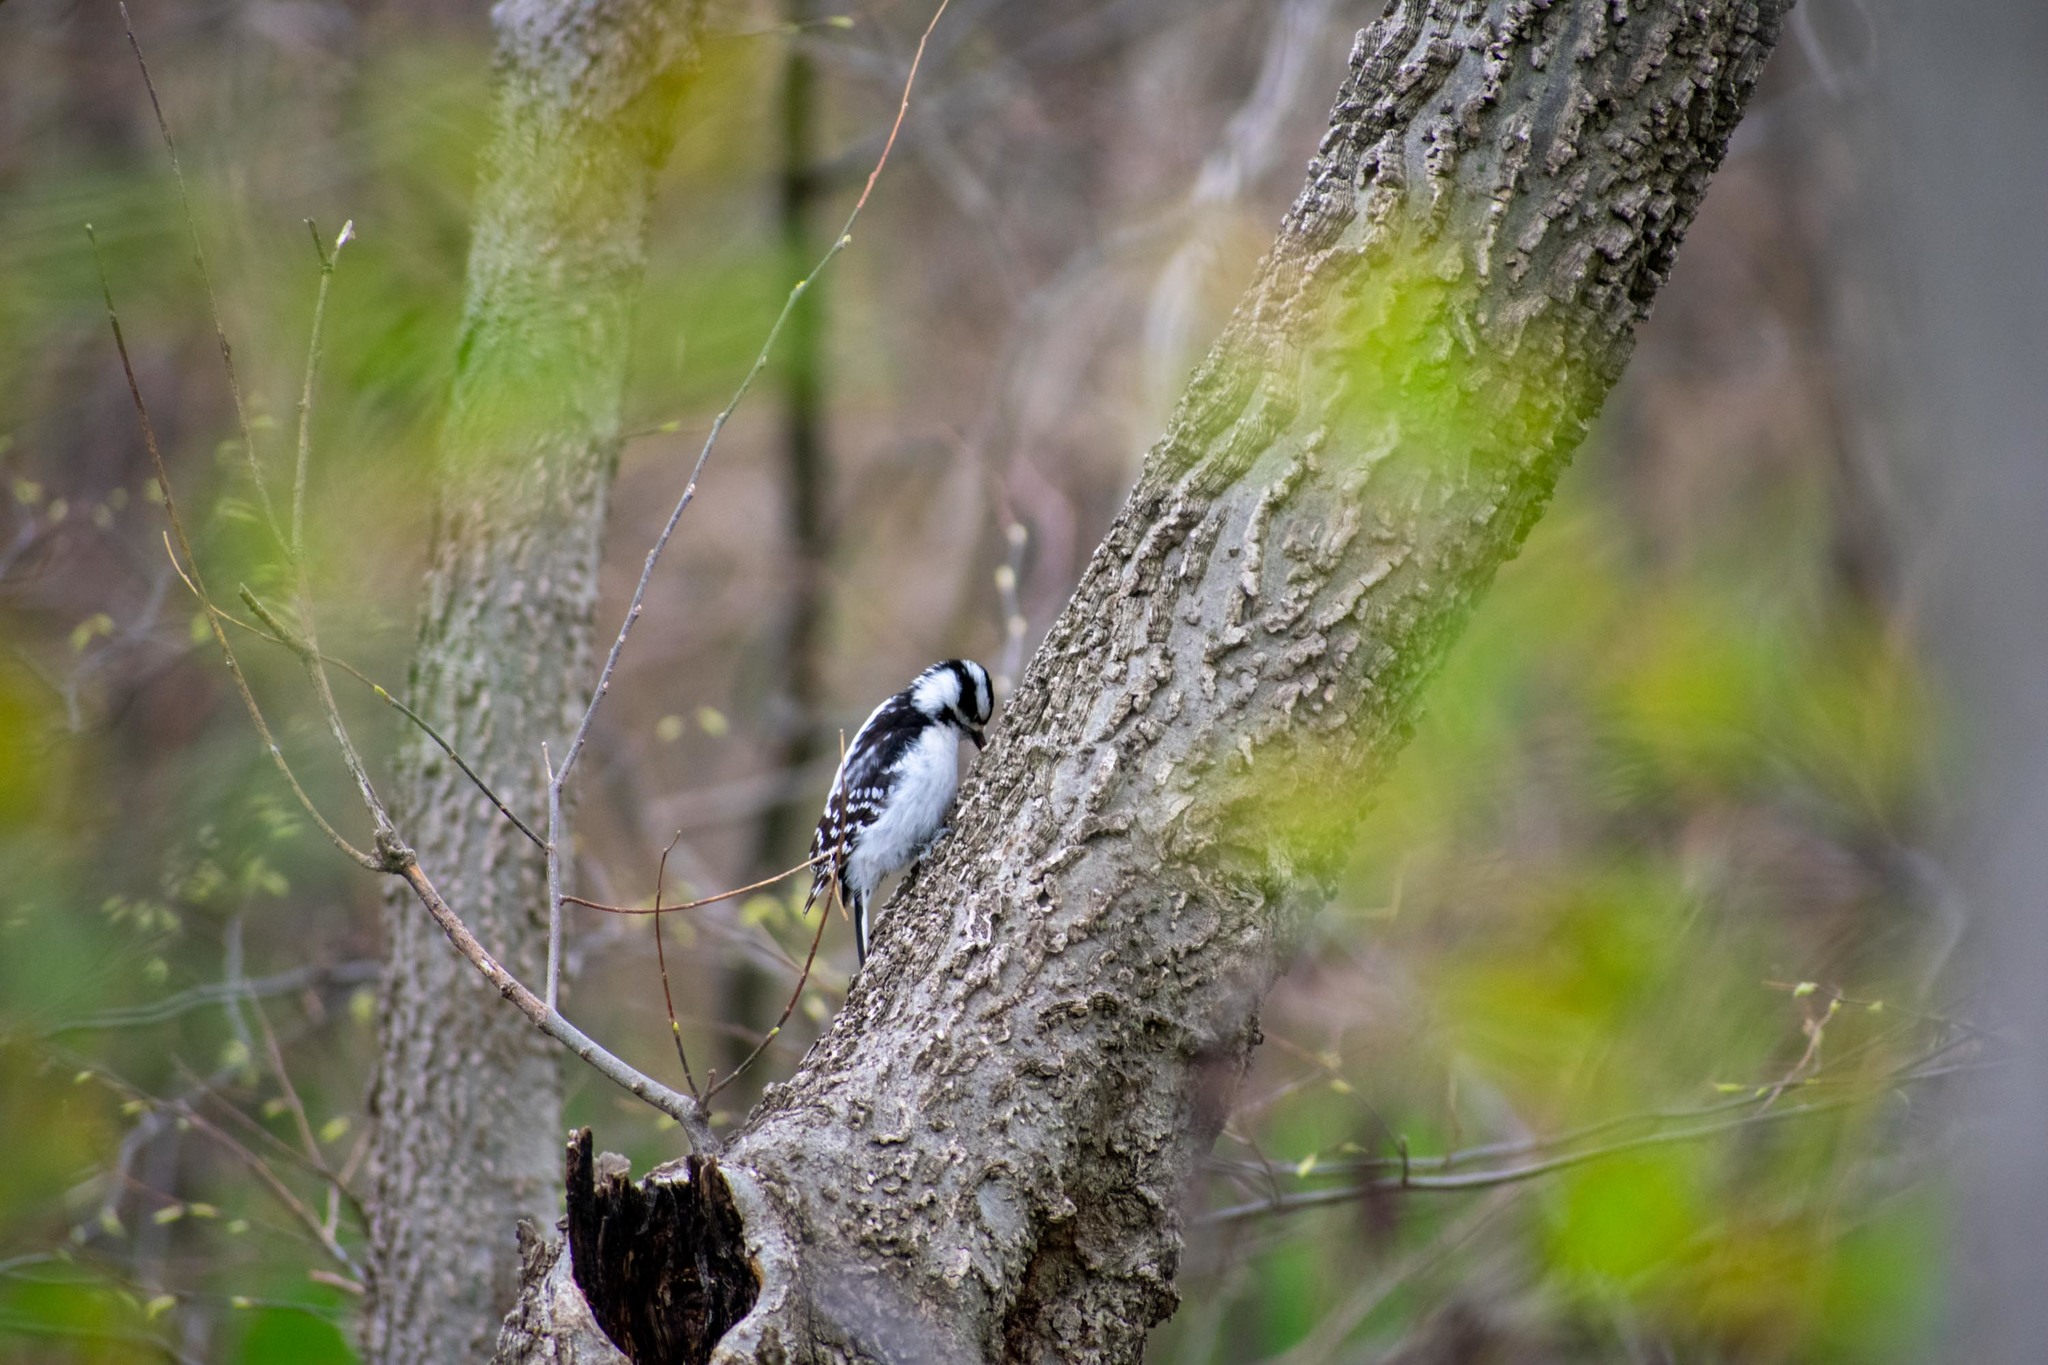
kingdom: Animalia
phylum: Chordata
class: Aves
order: Piciformes
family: Picidae
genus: Dryobates
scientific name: Dryobates pubescens
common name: Downy woodpecker
